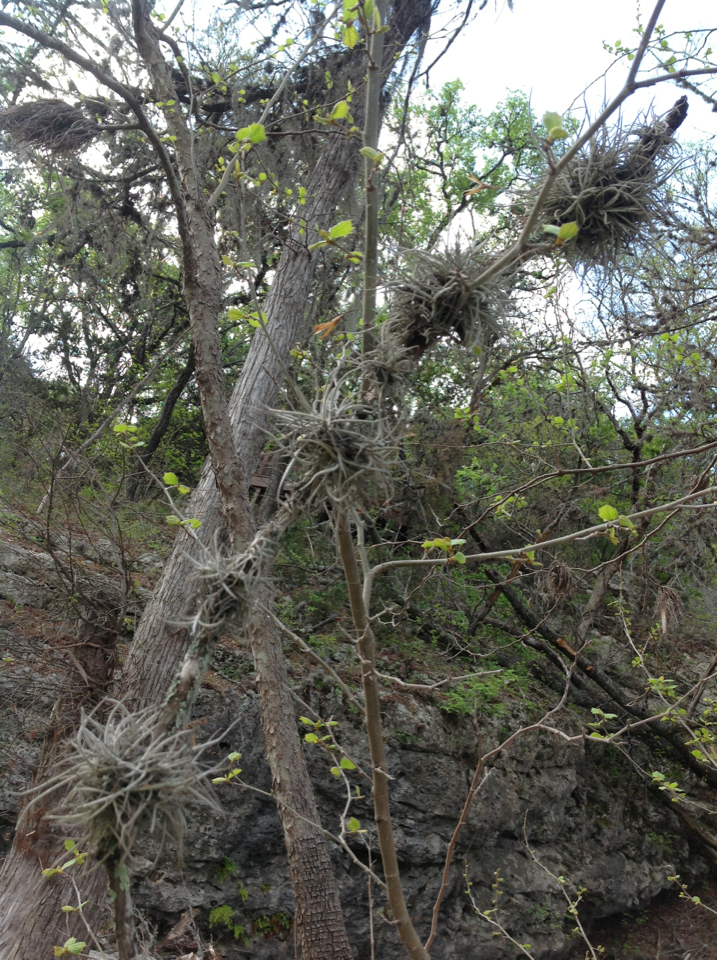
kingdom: Plantae
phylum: Tracheophyta
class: Liliopsida
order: Poales
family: Bromeliaceae
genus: Tillandsia
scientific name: Tillandsia recurvata
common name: Small ballmoss
